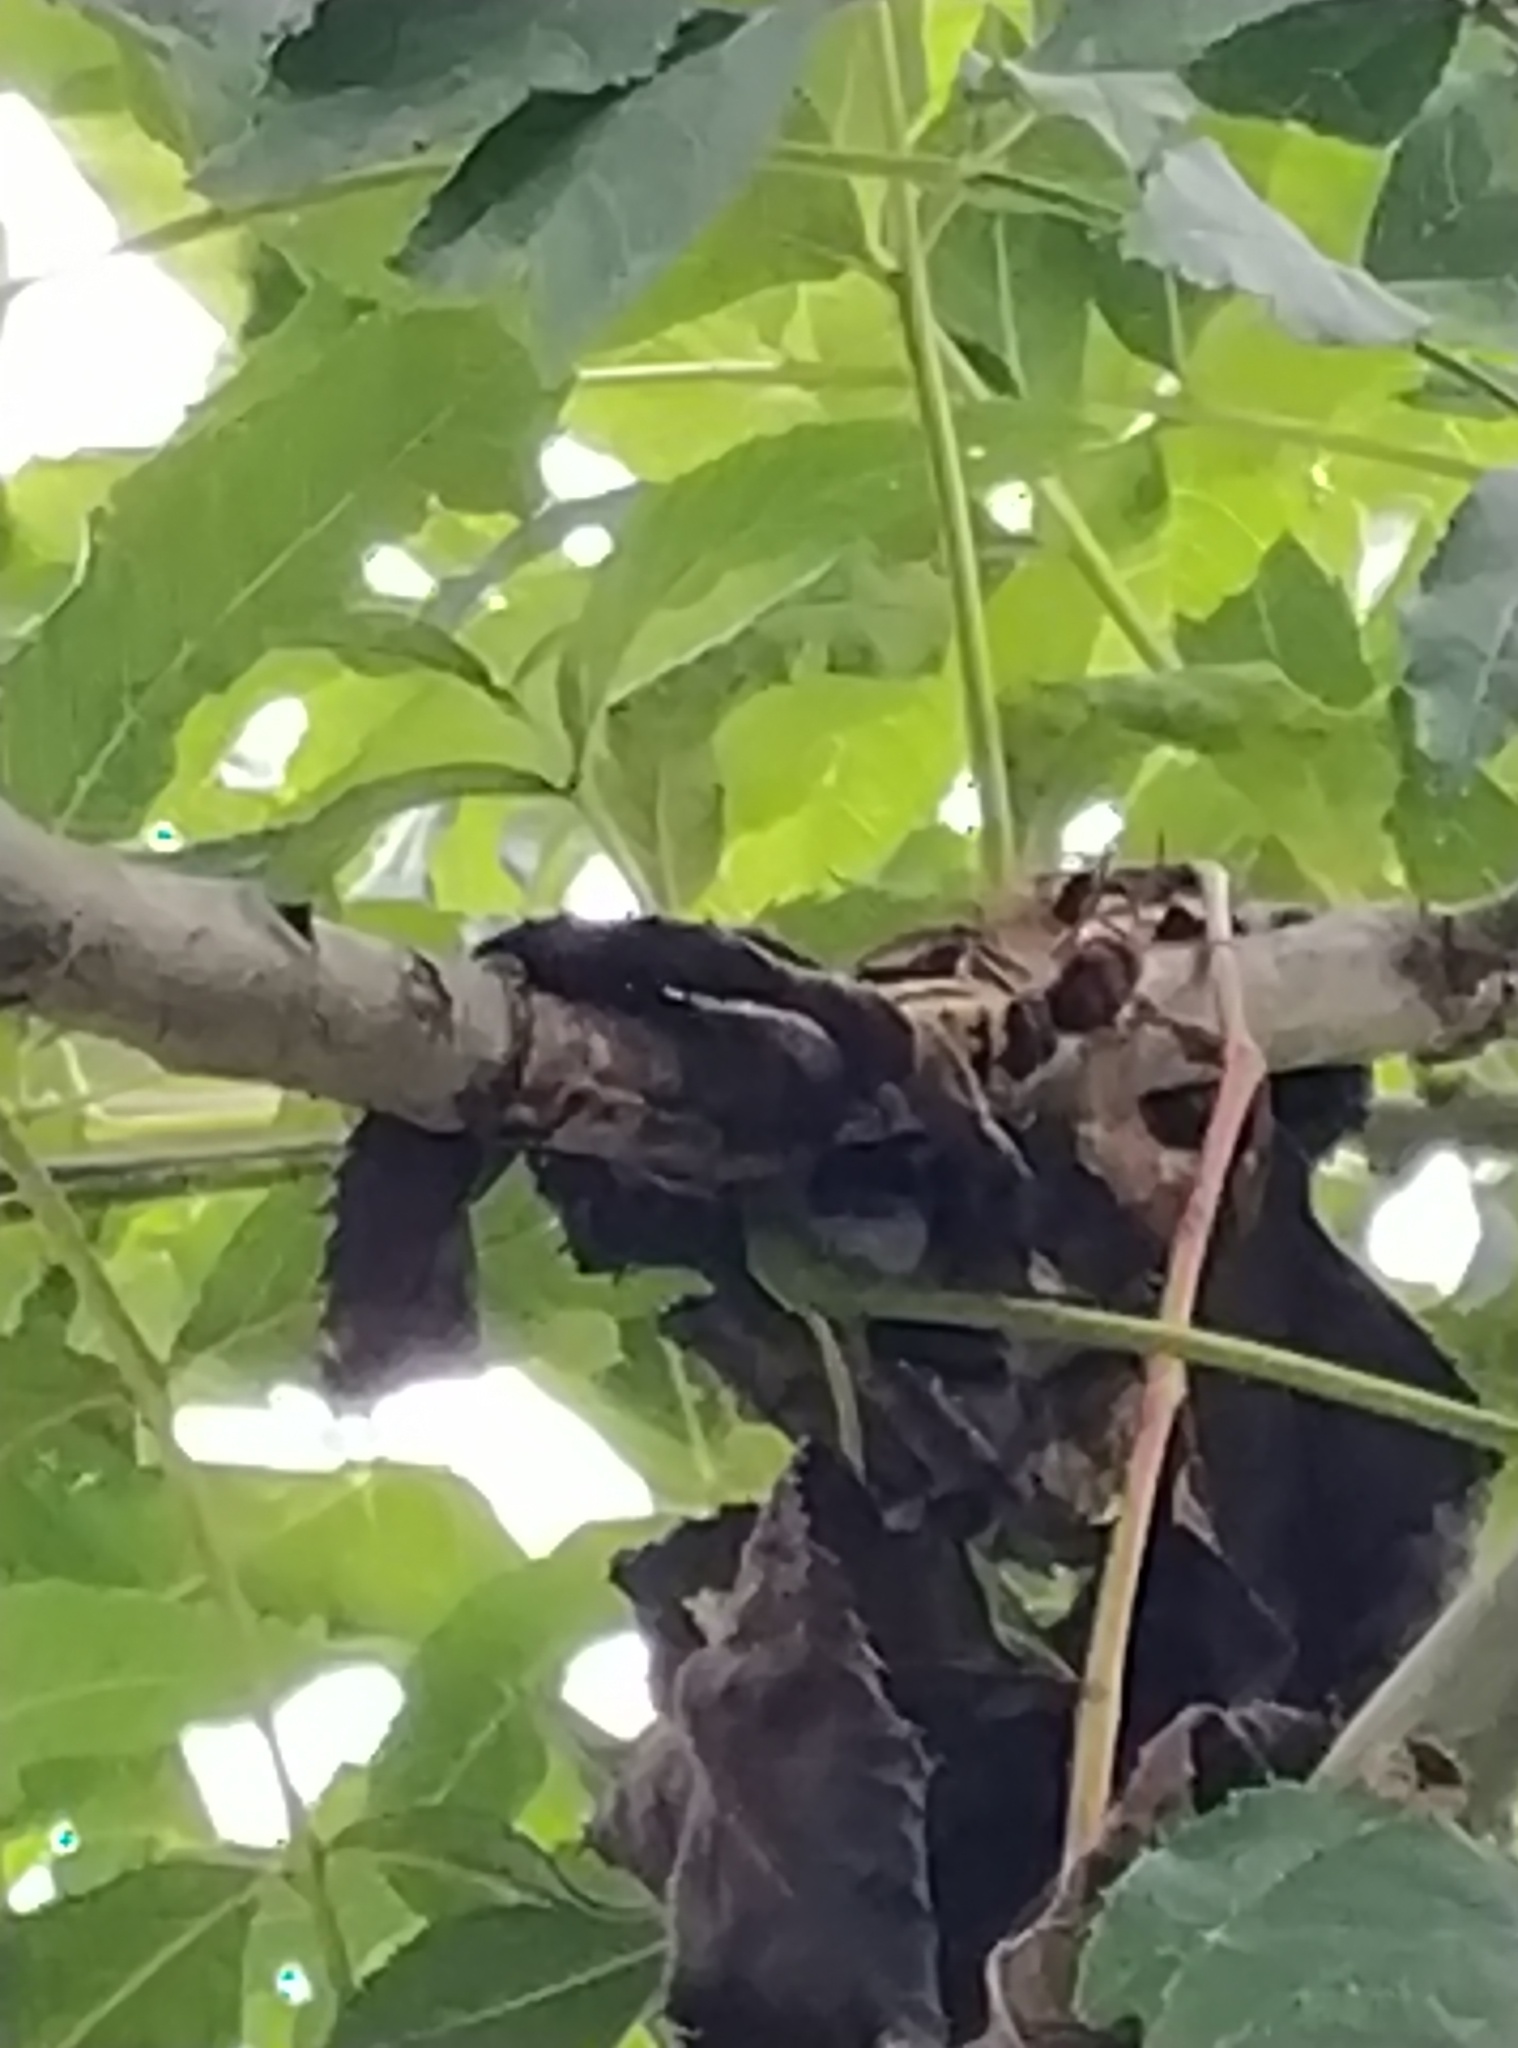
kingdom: Animalia
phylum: Arthropoda
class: Insecta
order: Hymenoptera
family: Vespidae
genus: Vespa
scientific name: Vespa crabro
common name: Hornet
